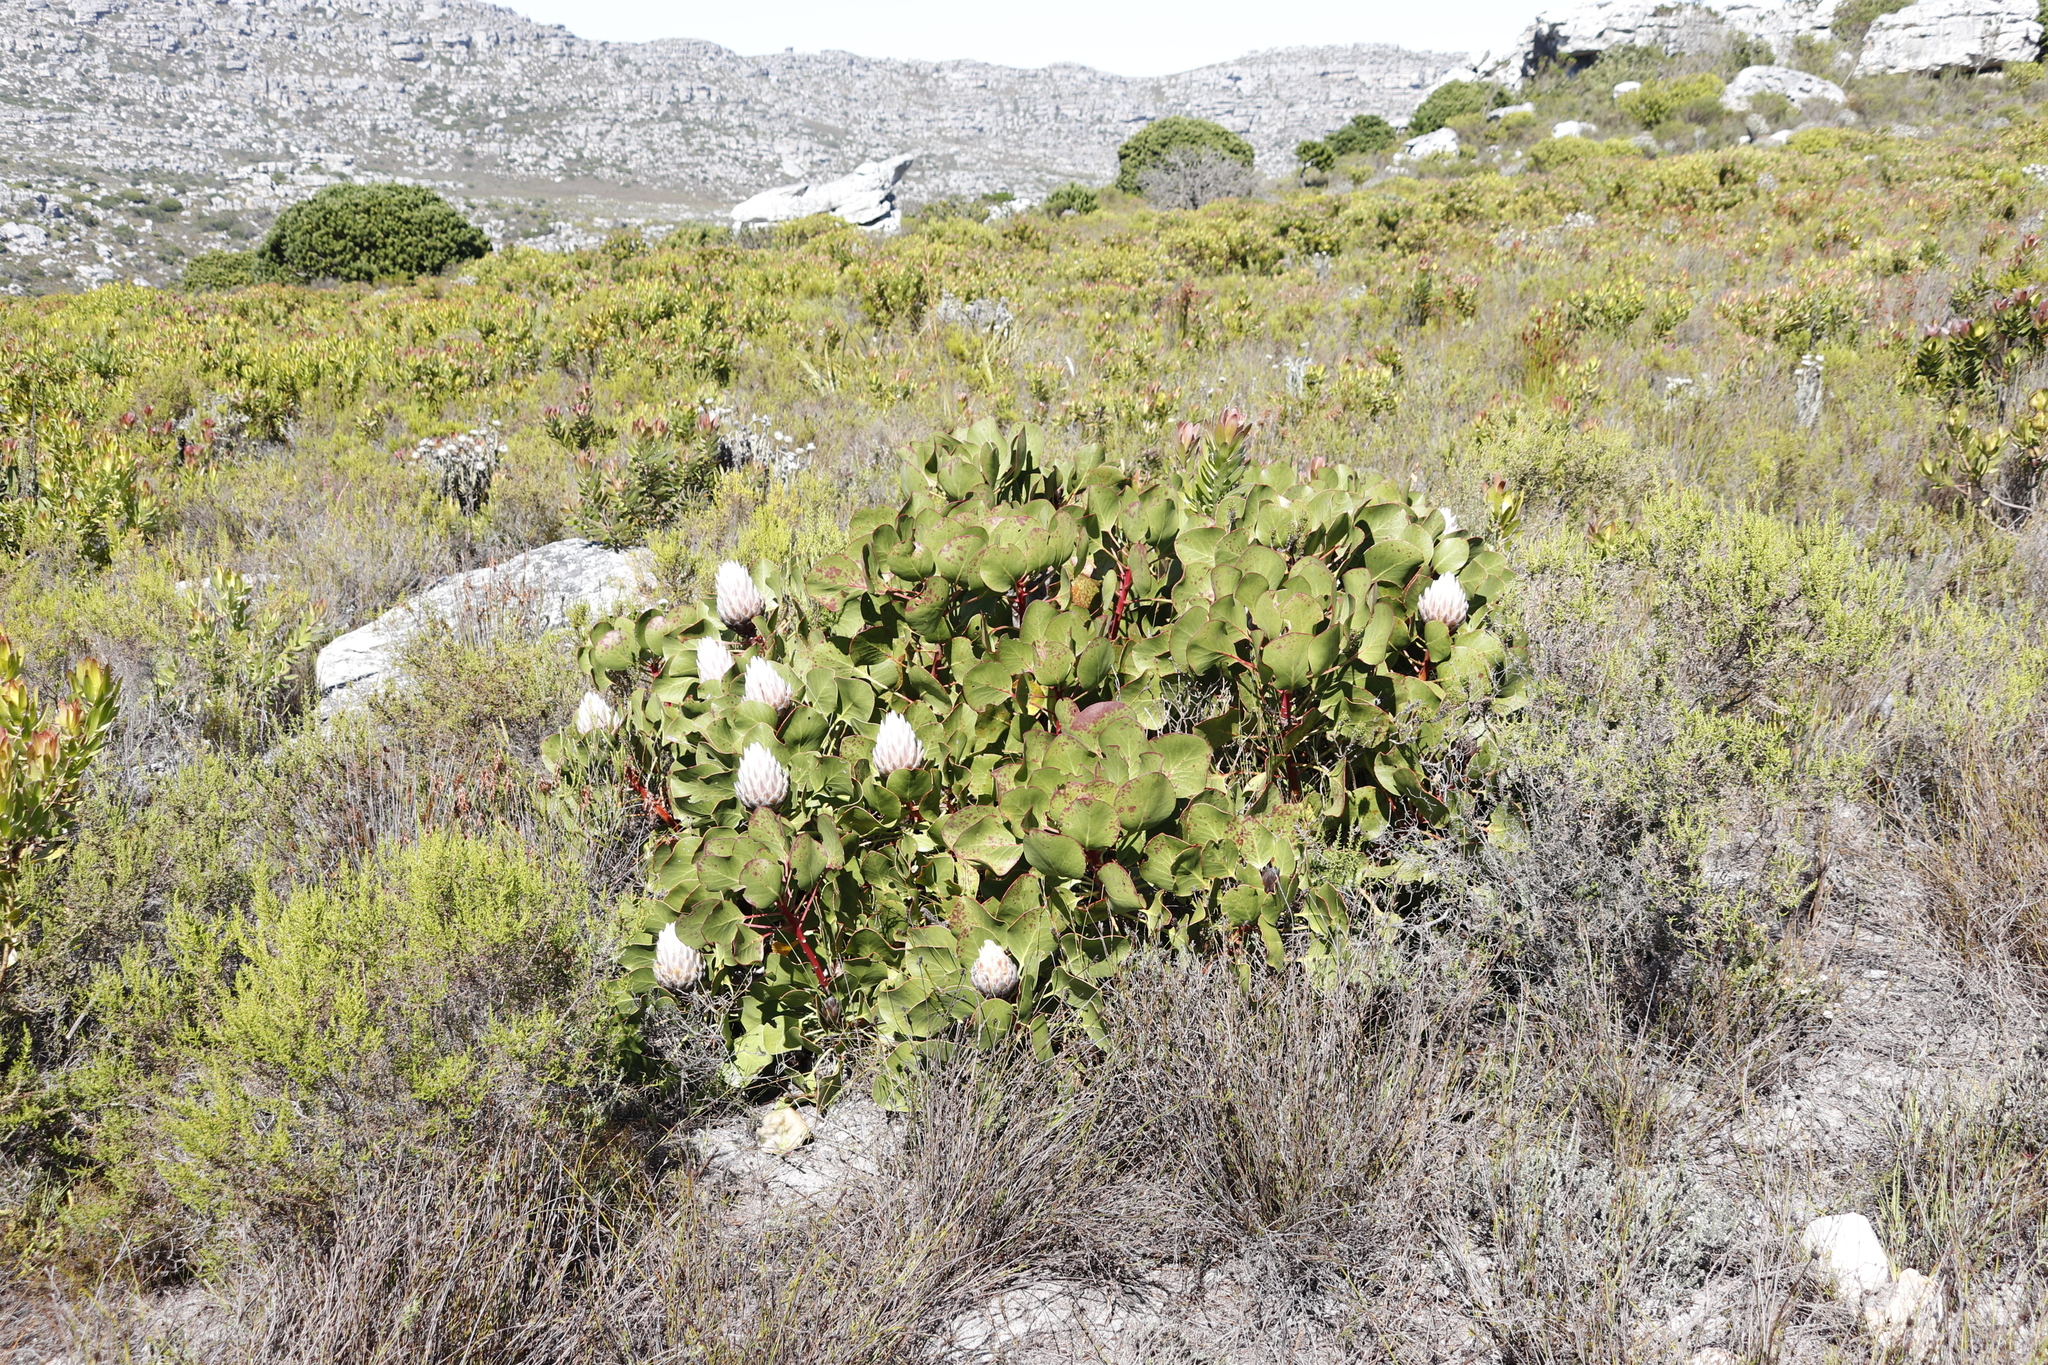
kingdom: Plantae
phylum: Tracheophyta
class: Magnoliopsida
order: Proteales
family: Proteaceae
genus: Protea
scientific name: Protea cynaroides
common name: King protea
